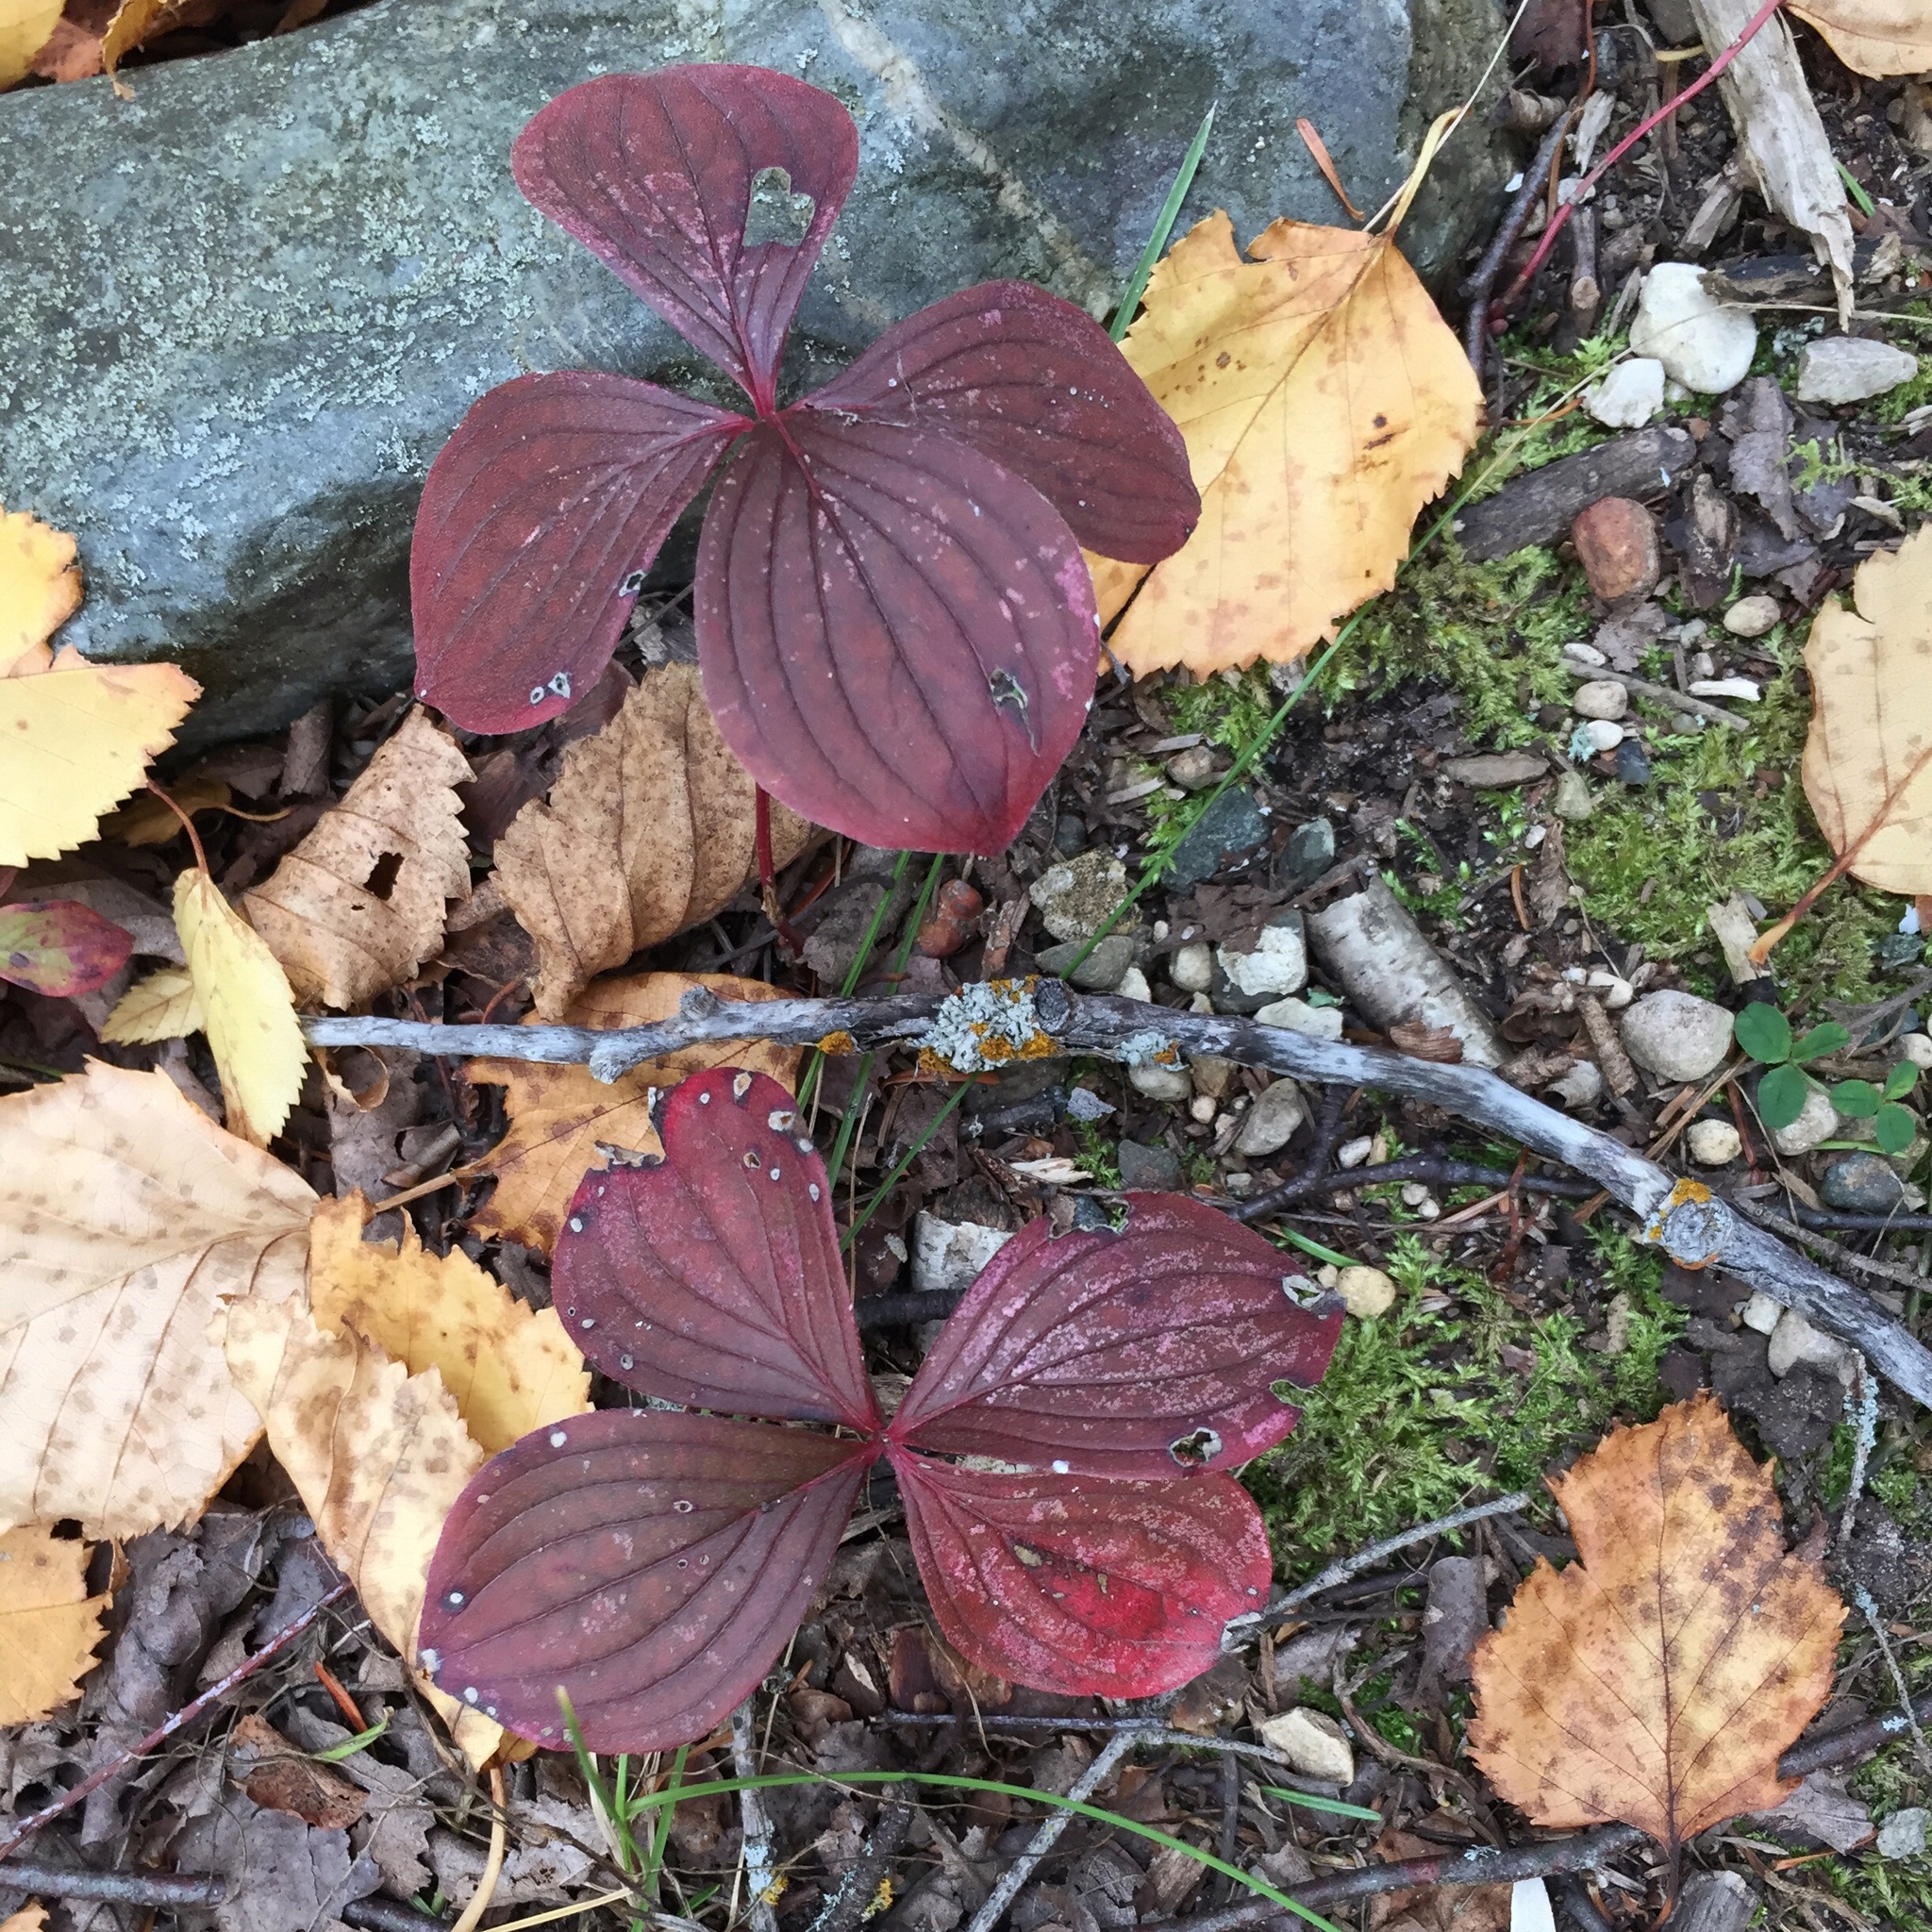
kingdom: Plantae
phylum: Tracheophyta
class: Magnoliopsida
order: Cornales
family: Cornaceae
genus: Cornus
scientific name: Cornus canadensis
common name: Creeping dogwood
